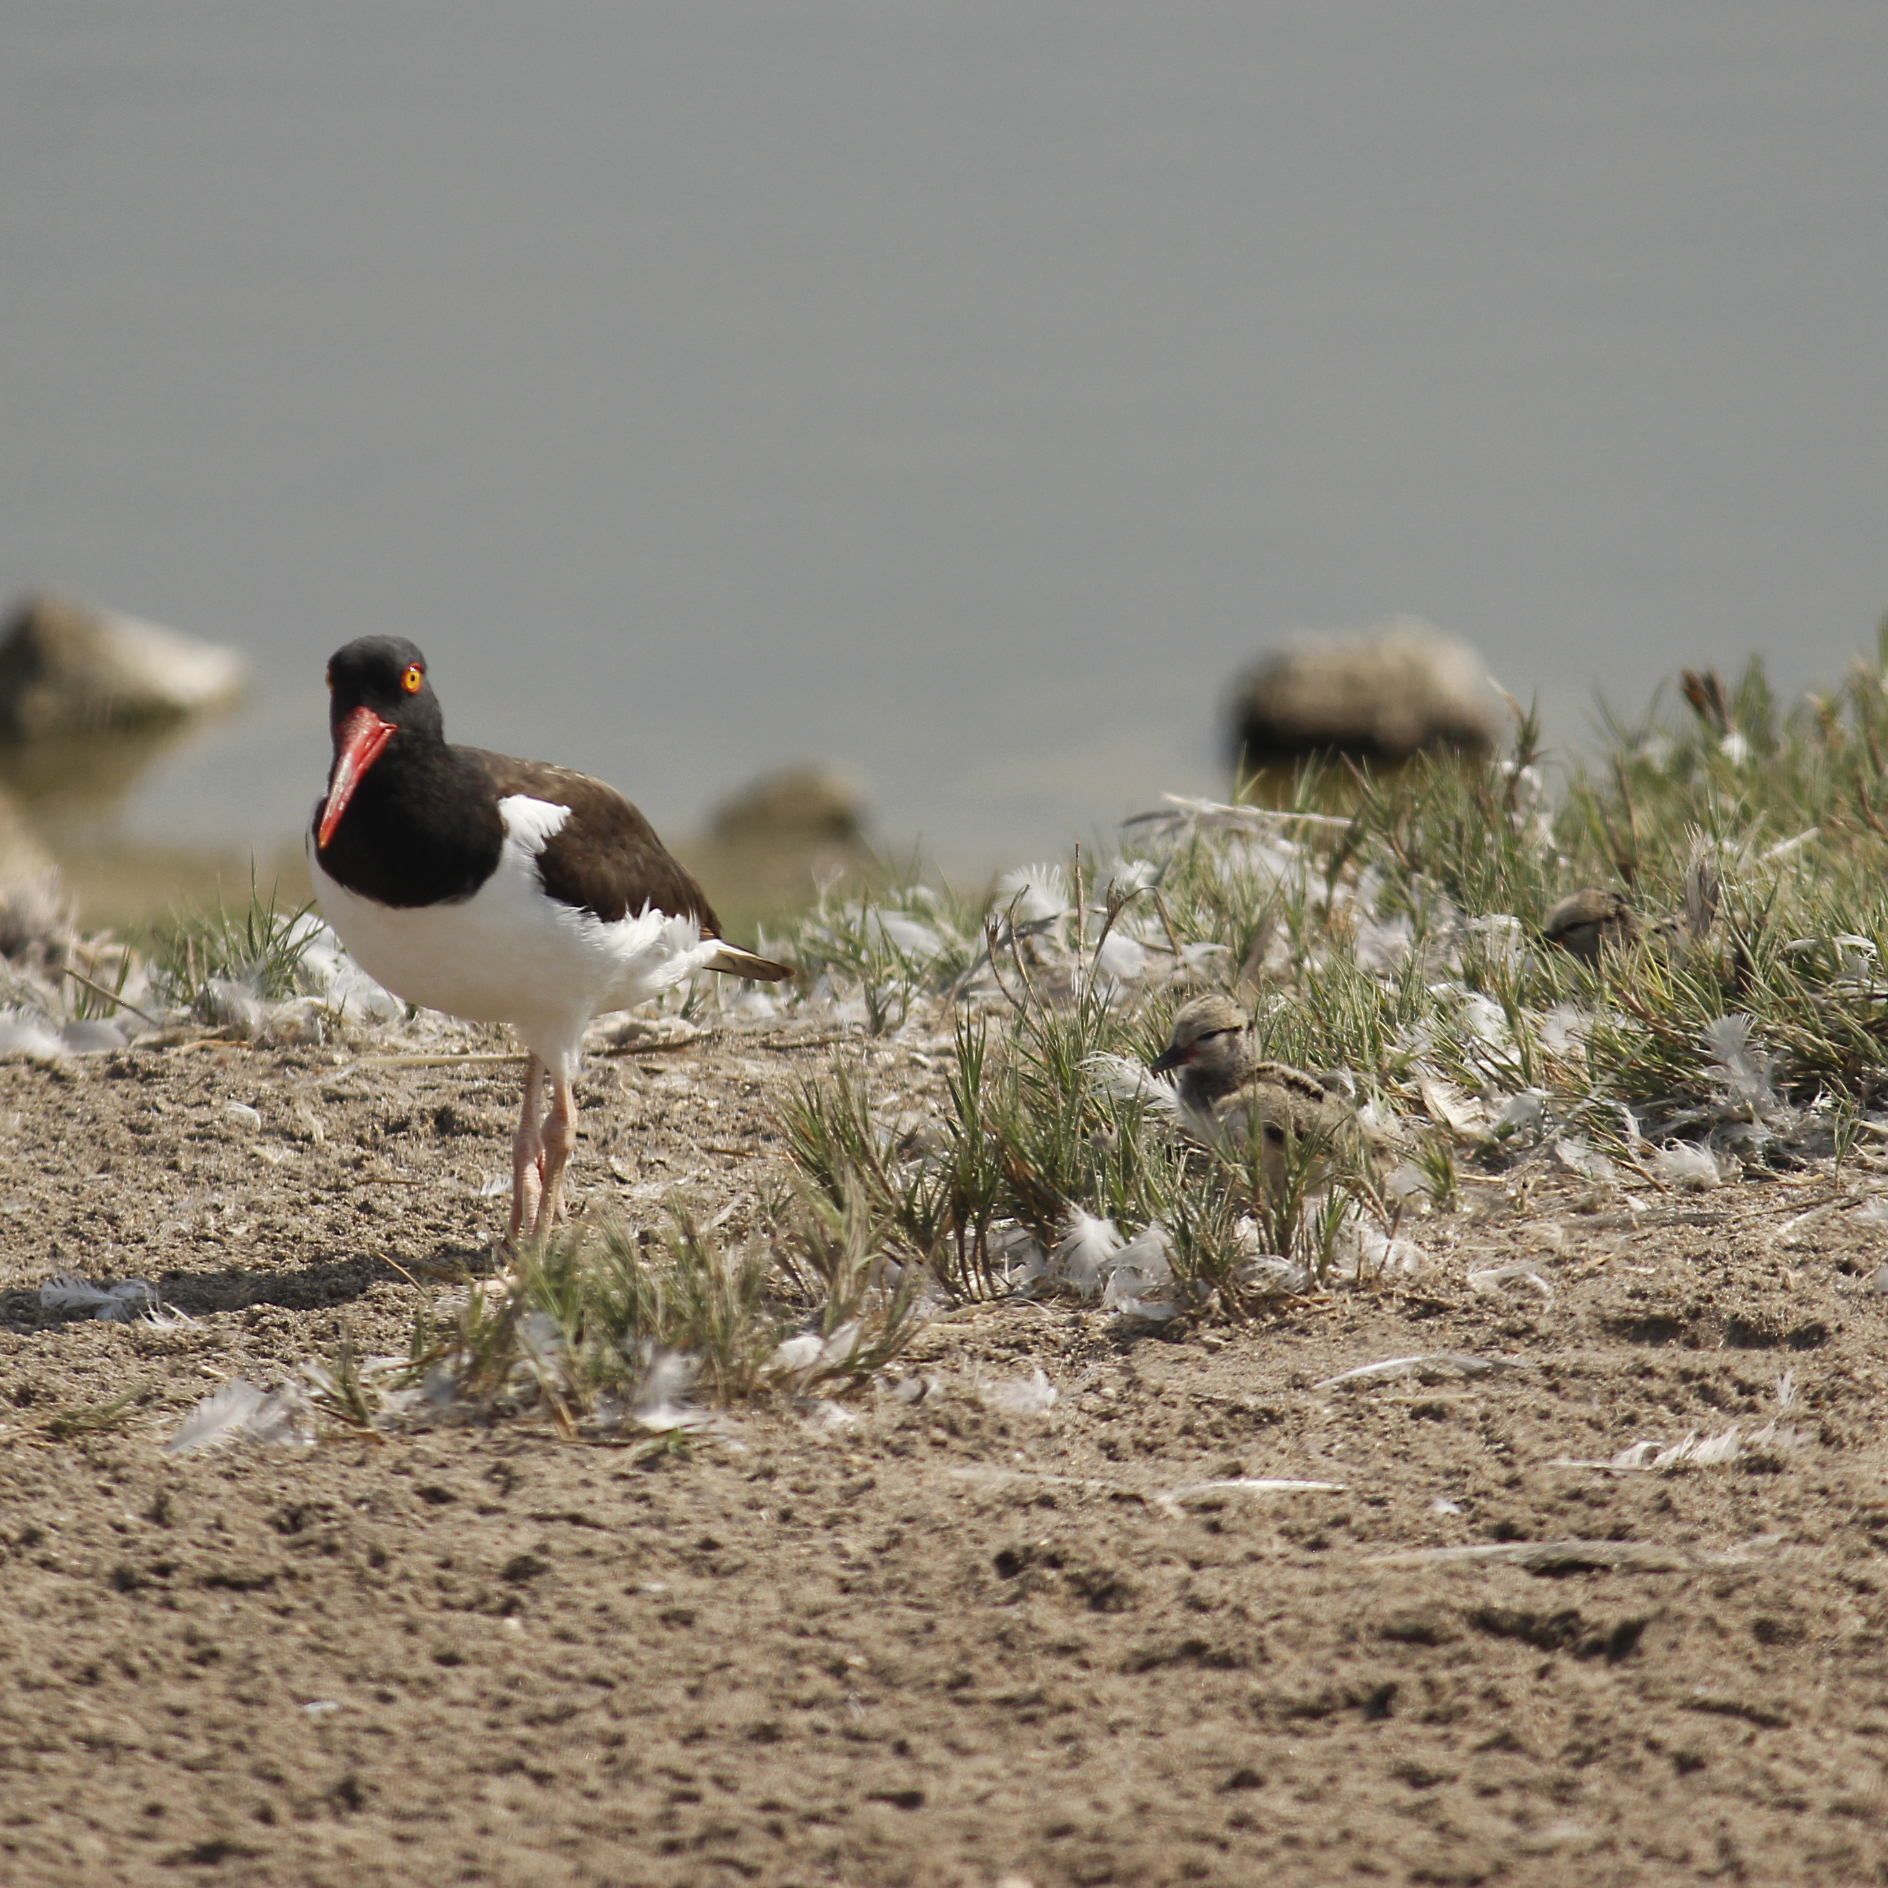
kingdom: Animalia
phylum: Chordata
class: Aves
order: Charadriiformes
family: Haematopodidae
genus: Haematopus
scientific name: Haematopus palliatus
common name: American oystercatcher
